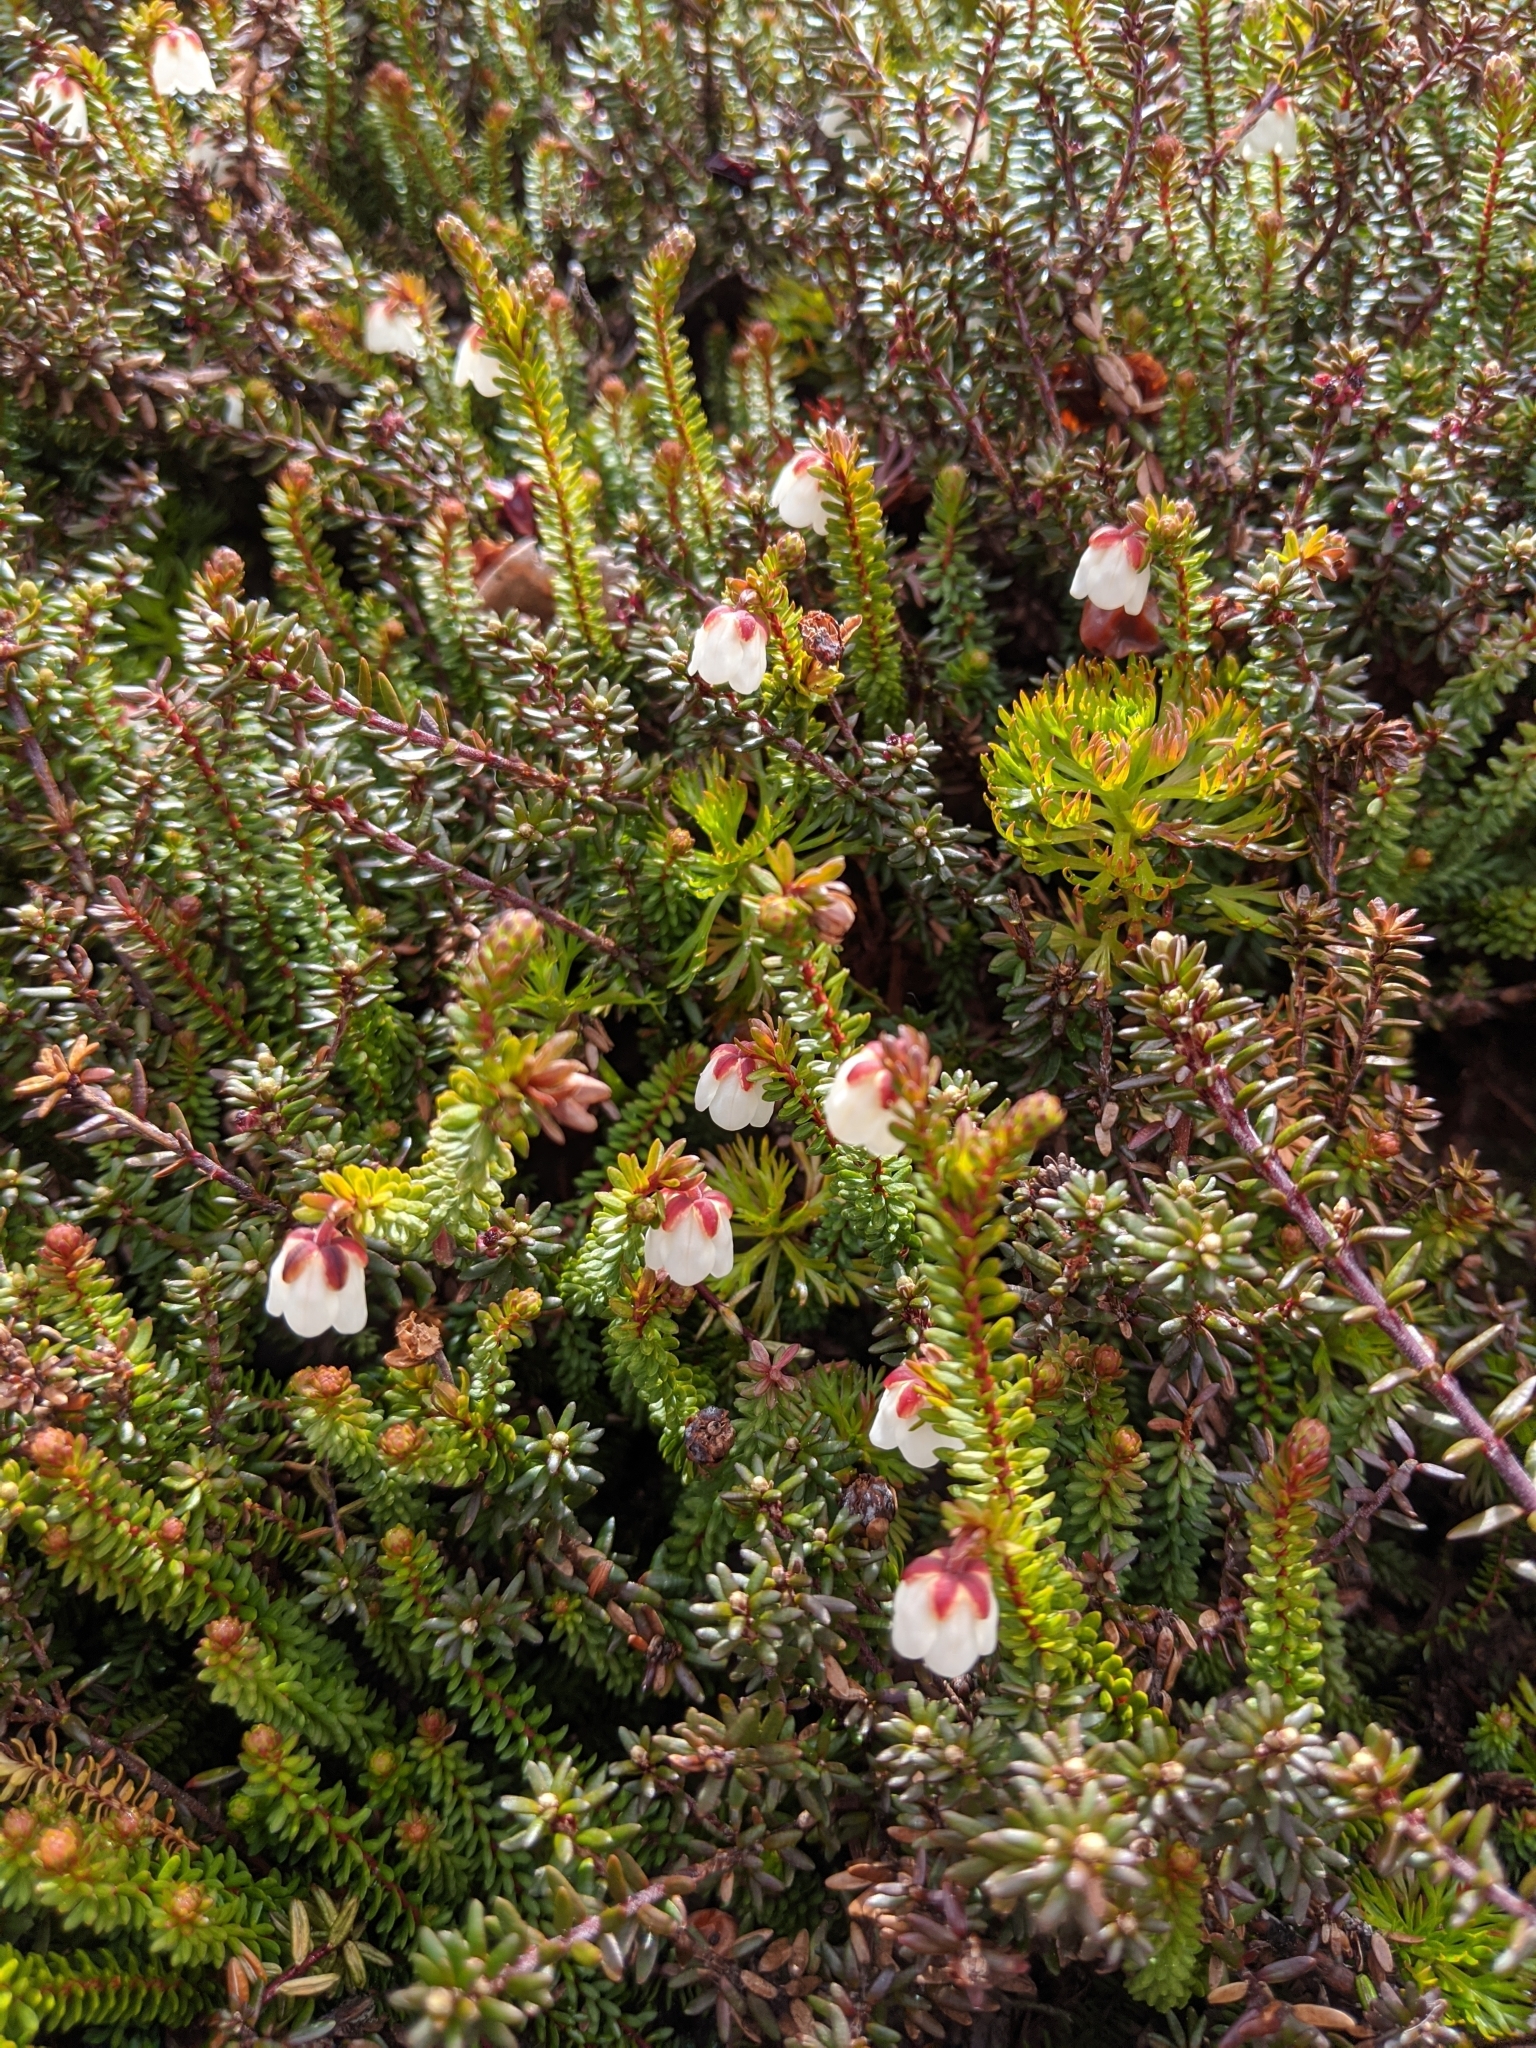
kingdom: Plantae
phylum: Tracheophyta
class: Magnoliopsida
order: Ericales
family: Ericaceae
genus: Harrimanella
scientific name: Harrimanella stelleriana
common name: Alaska bell heather
